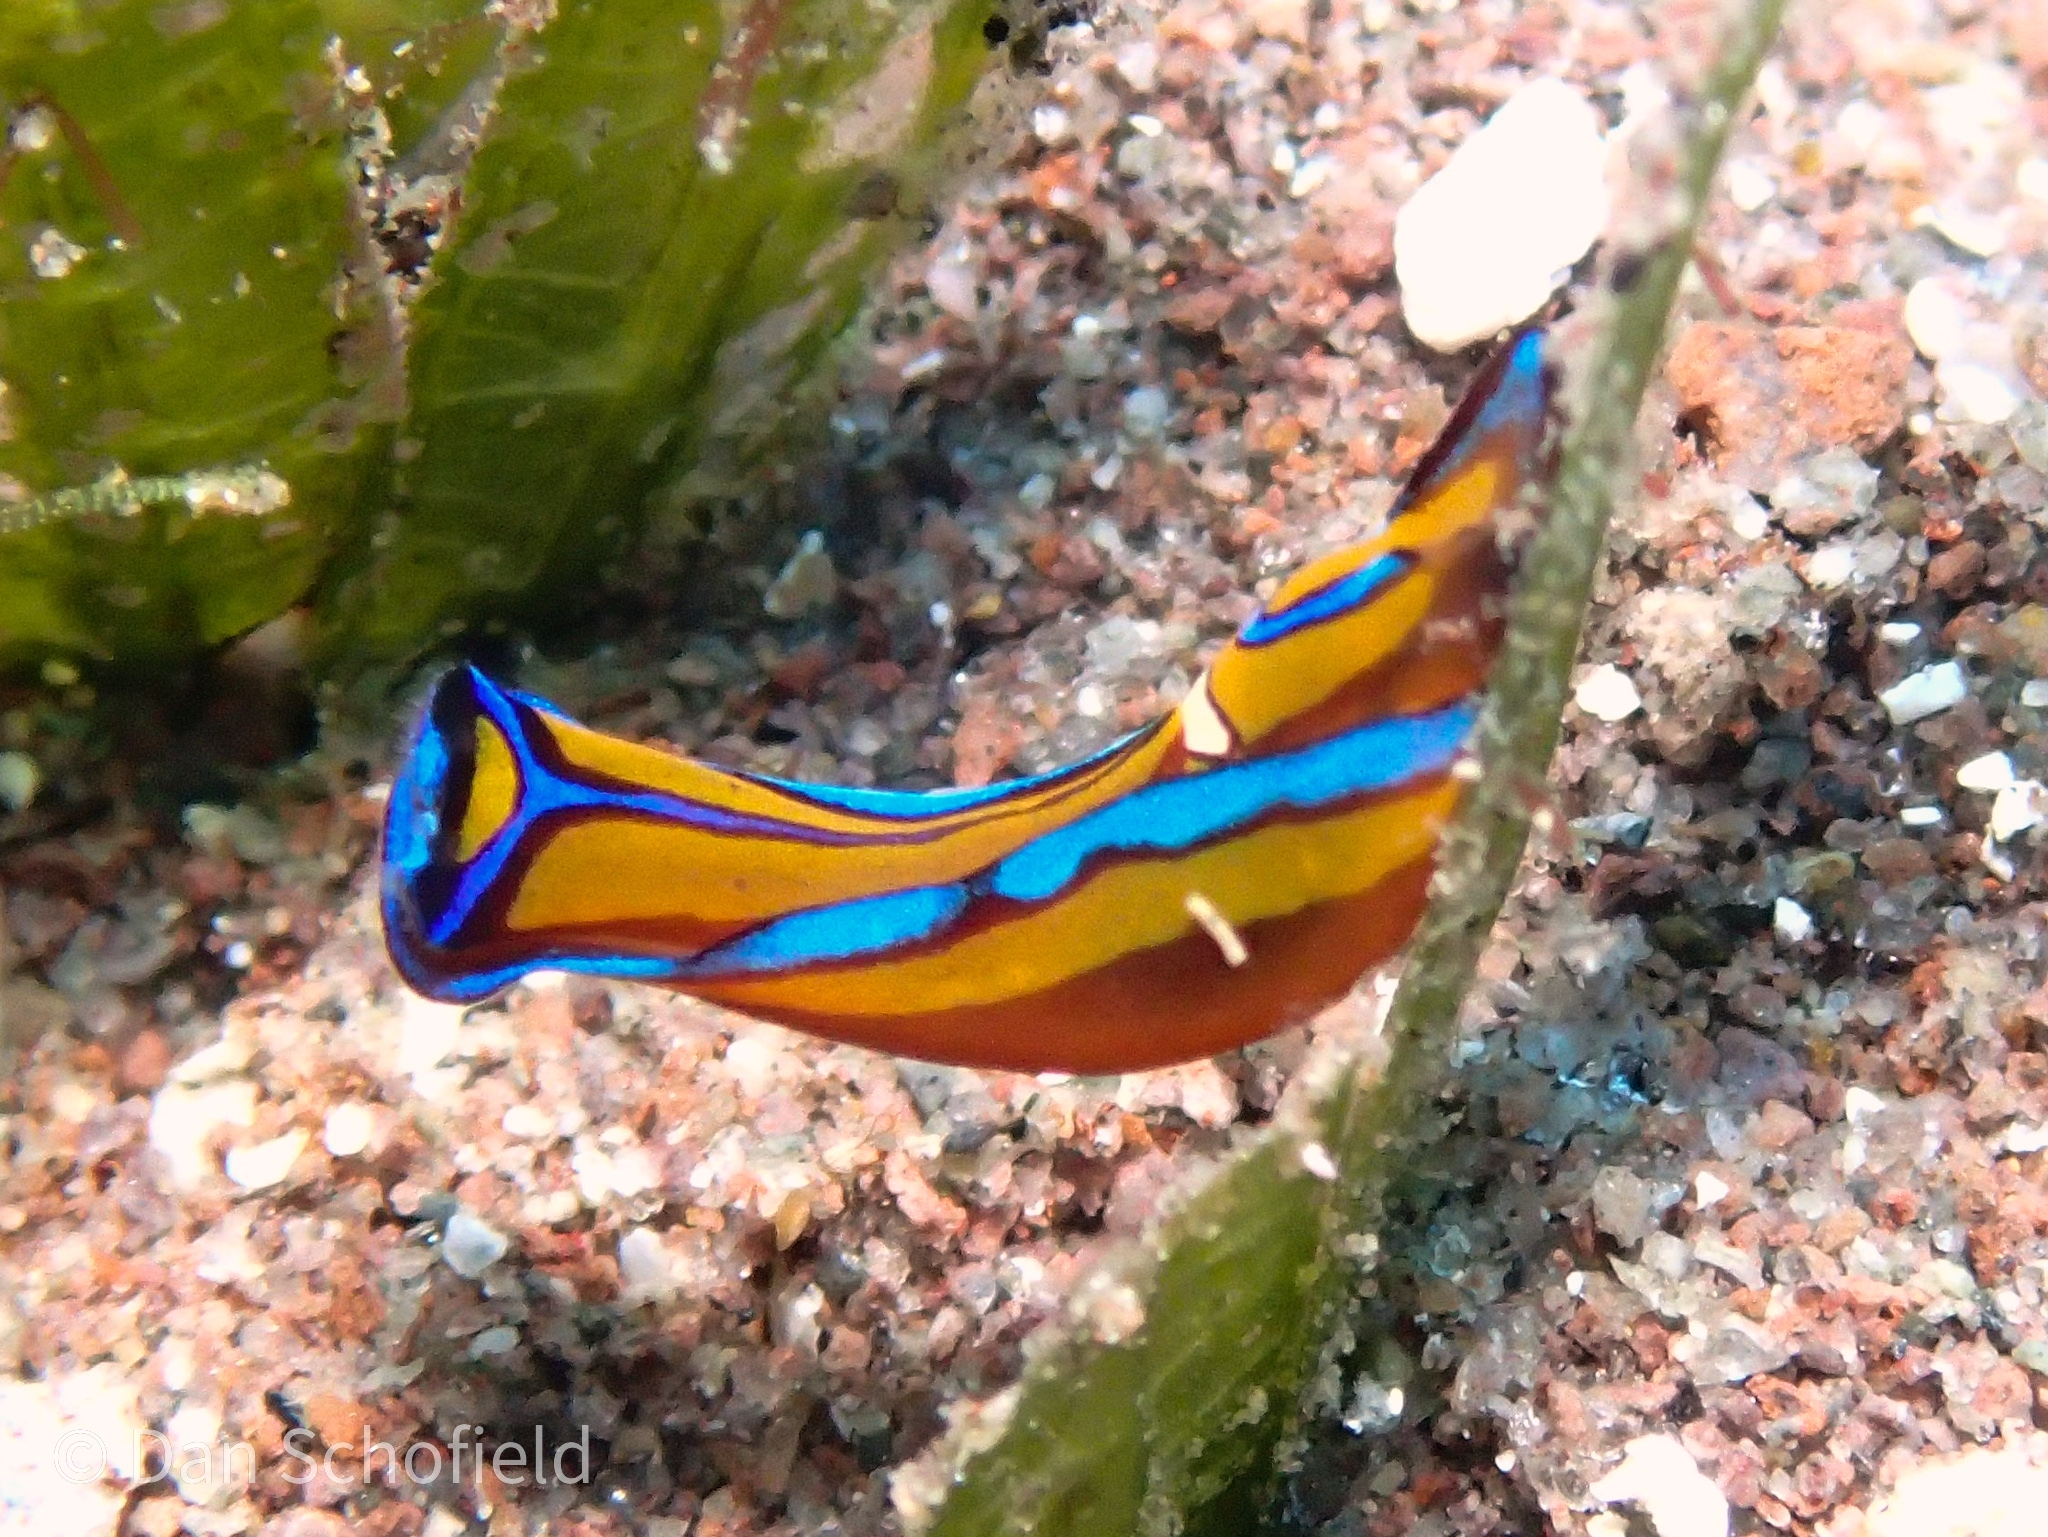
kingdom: Animalia
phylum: Mollusca
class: Gastropoda
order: Cephalaspidea
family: Aglajidae
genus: Chelidonura
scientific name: Chelidonura hirundinina
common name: Leech headshield slug
